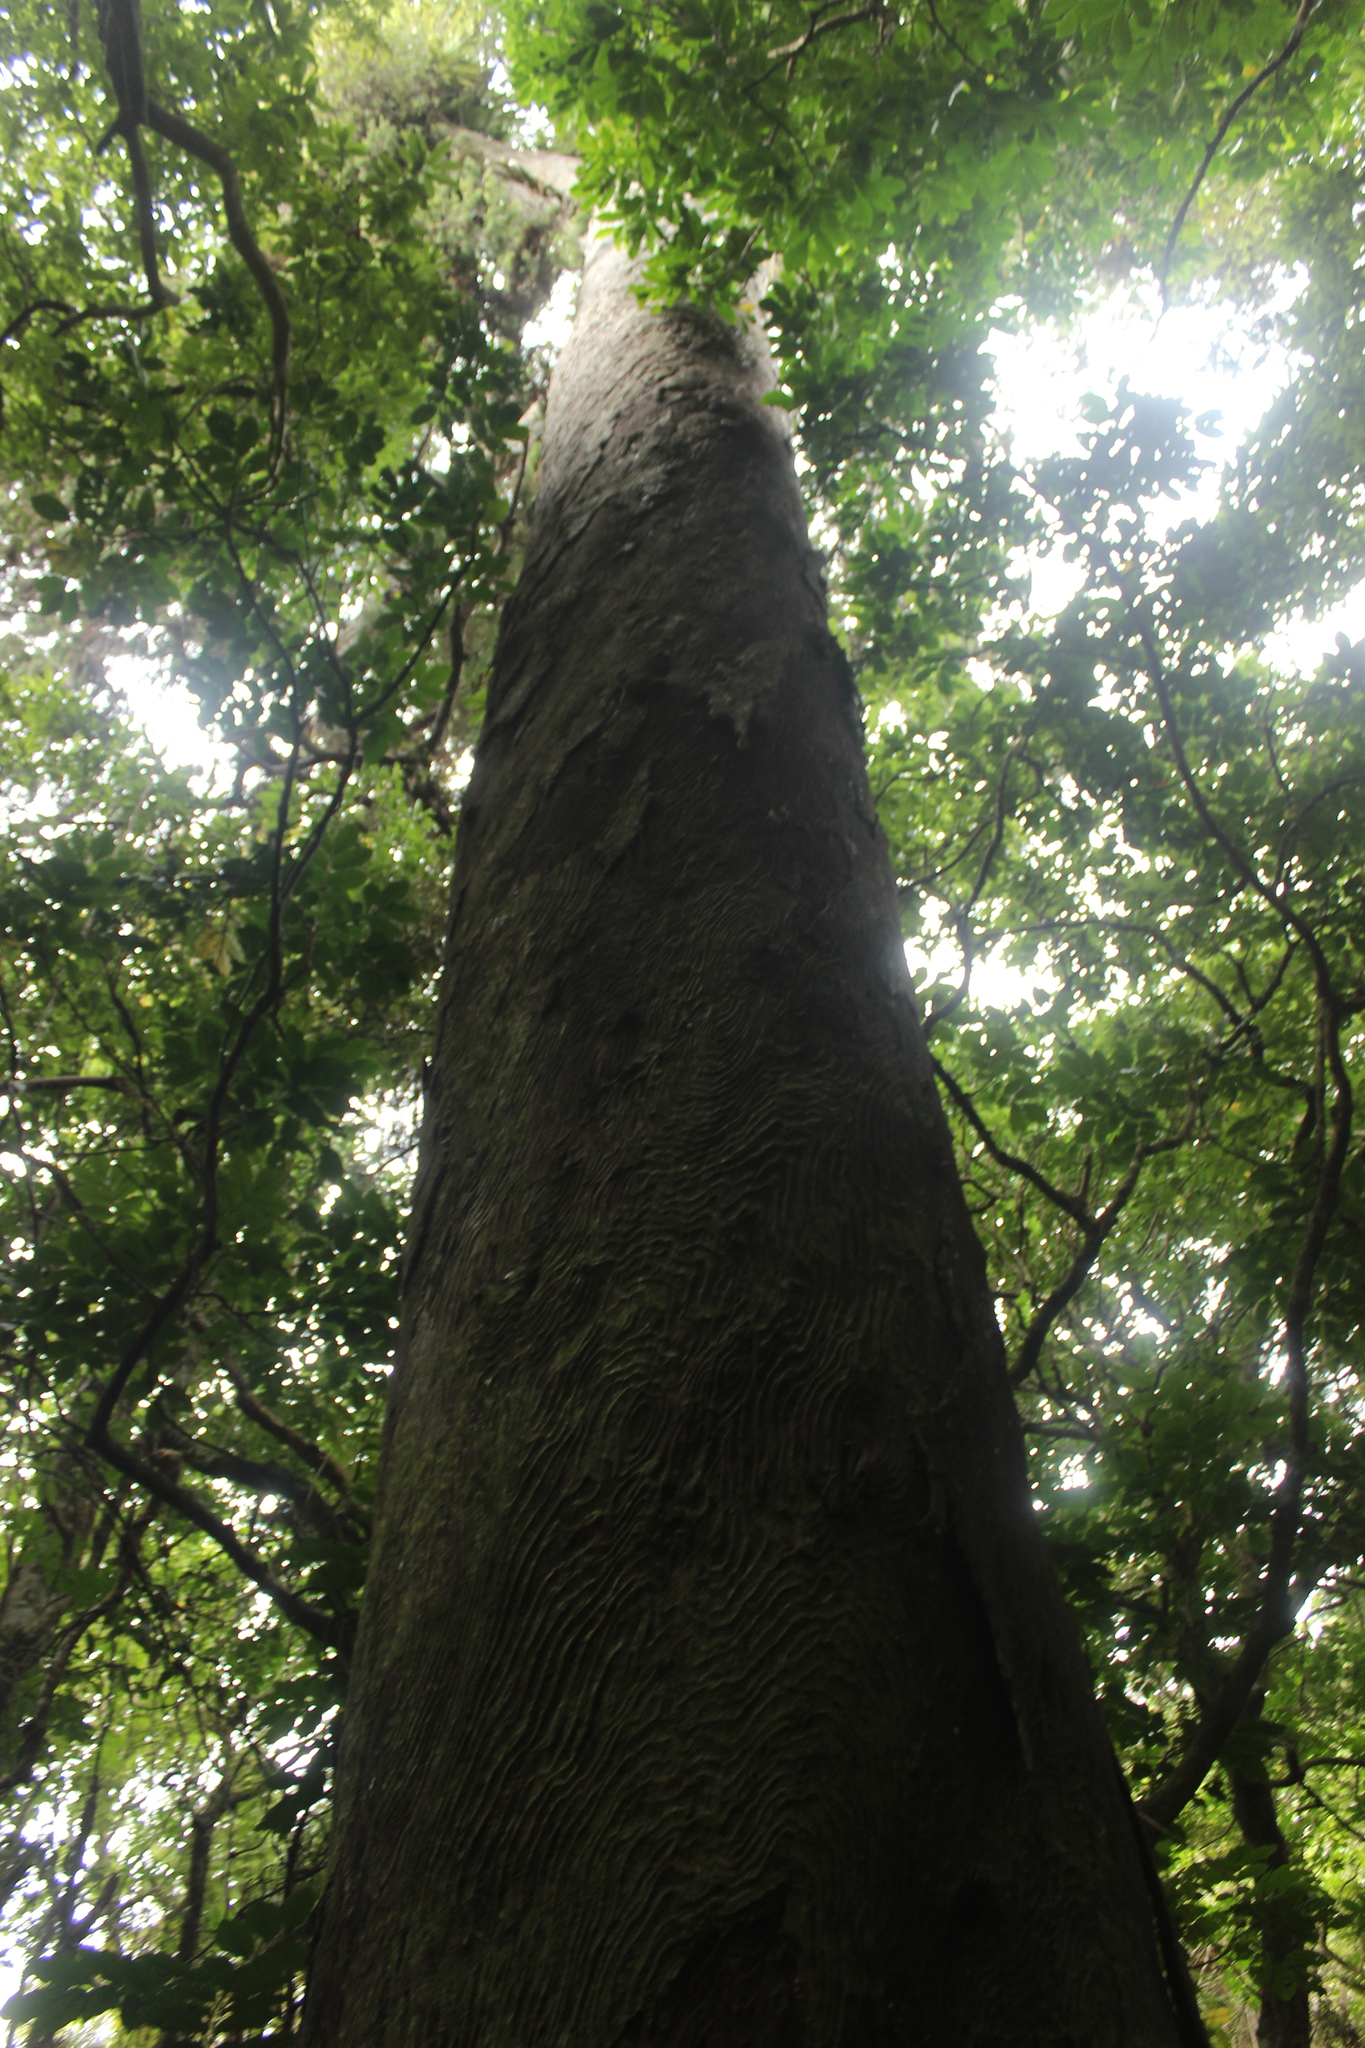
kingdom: Plantae
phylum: Tracheophyta
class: Pinopsida
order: Pinales
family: Podocarpaceae
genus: Dacrydium
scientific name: Dacrydium cupressinum
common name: Red pine
